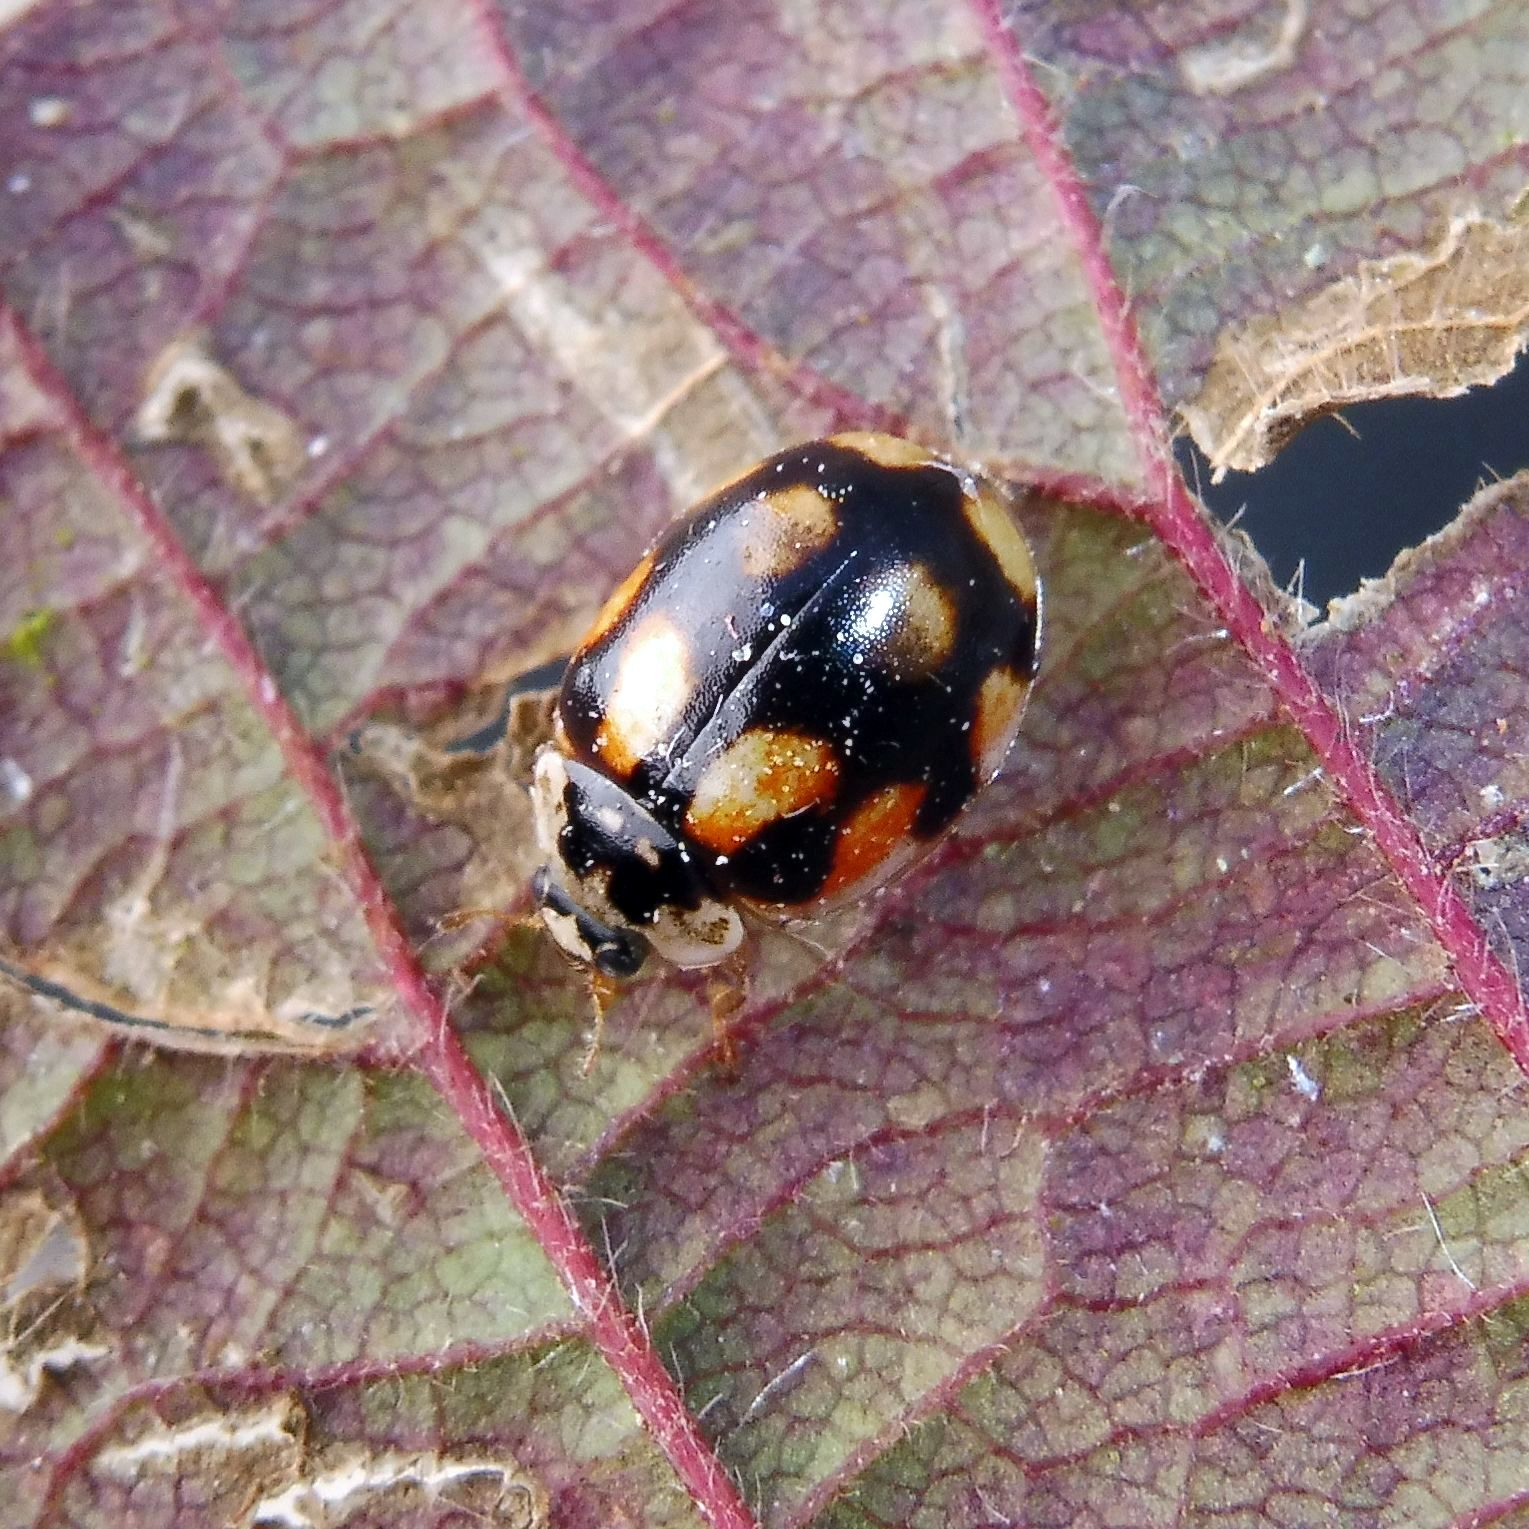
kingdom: Animalia
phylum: Arthropoda
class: Insecta
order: Coleoptera
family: Coccinellidae
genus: Adalia
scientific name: Adalia decempunctata
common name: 10-spot ladybird
